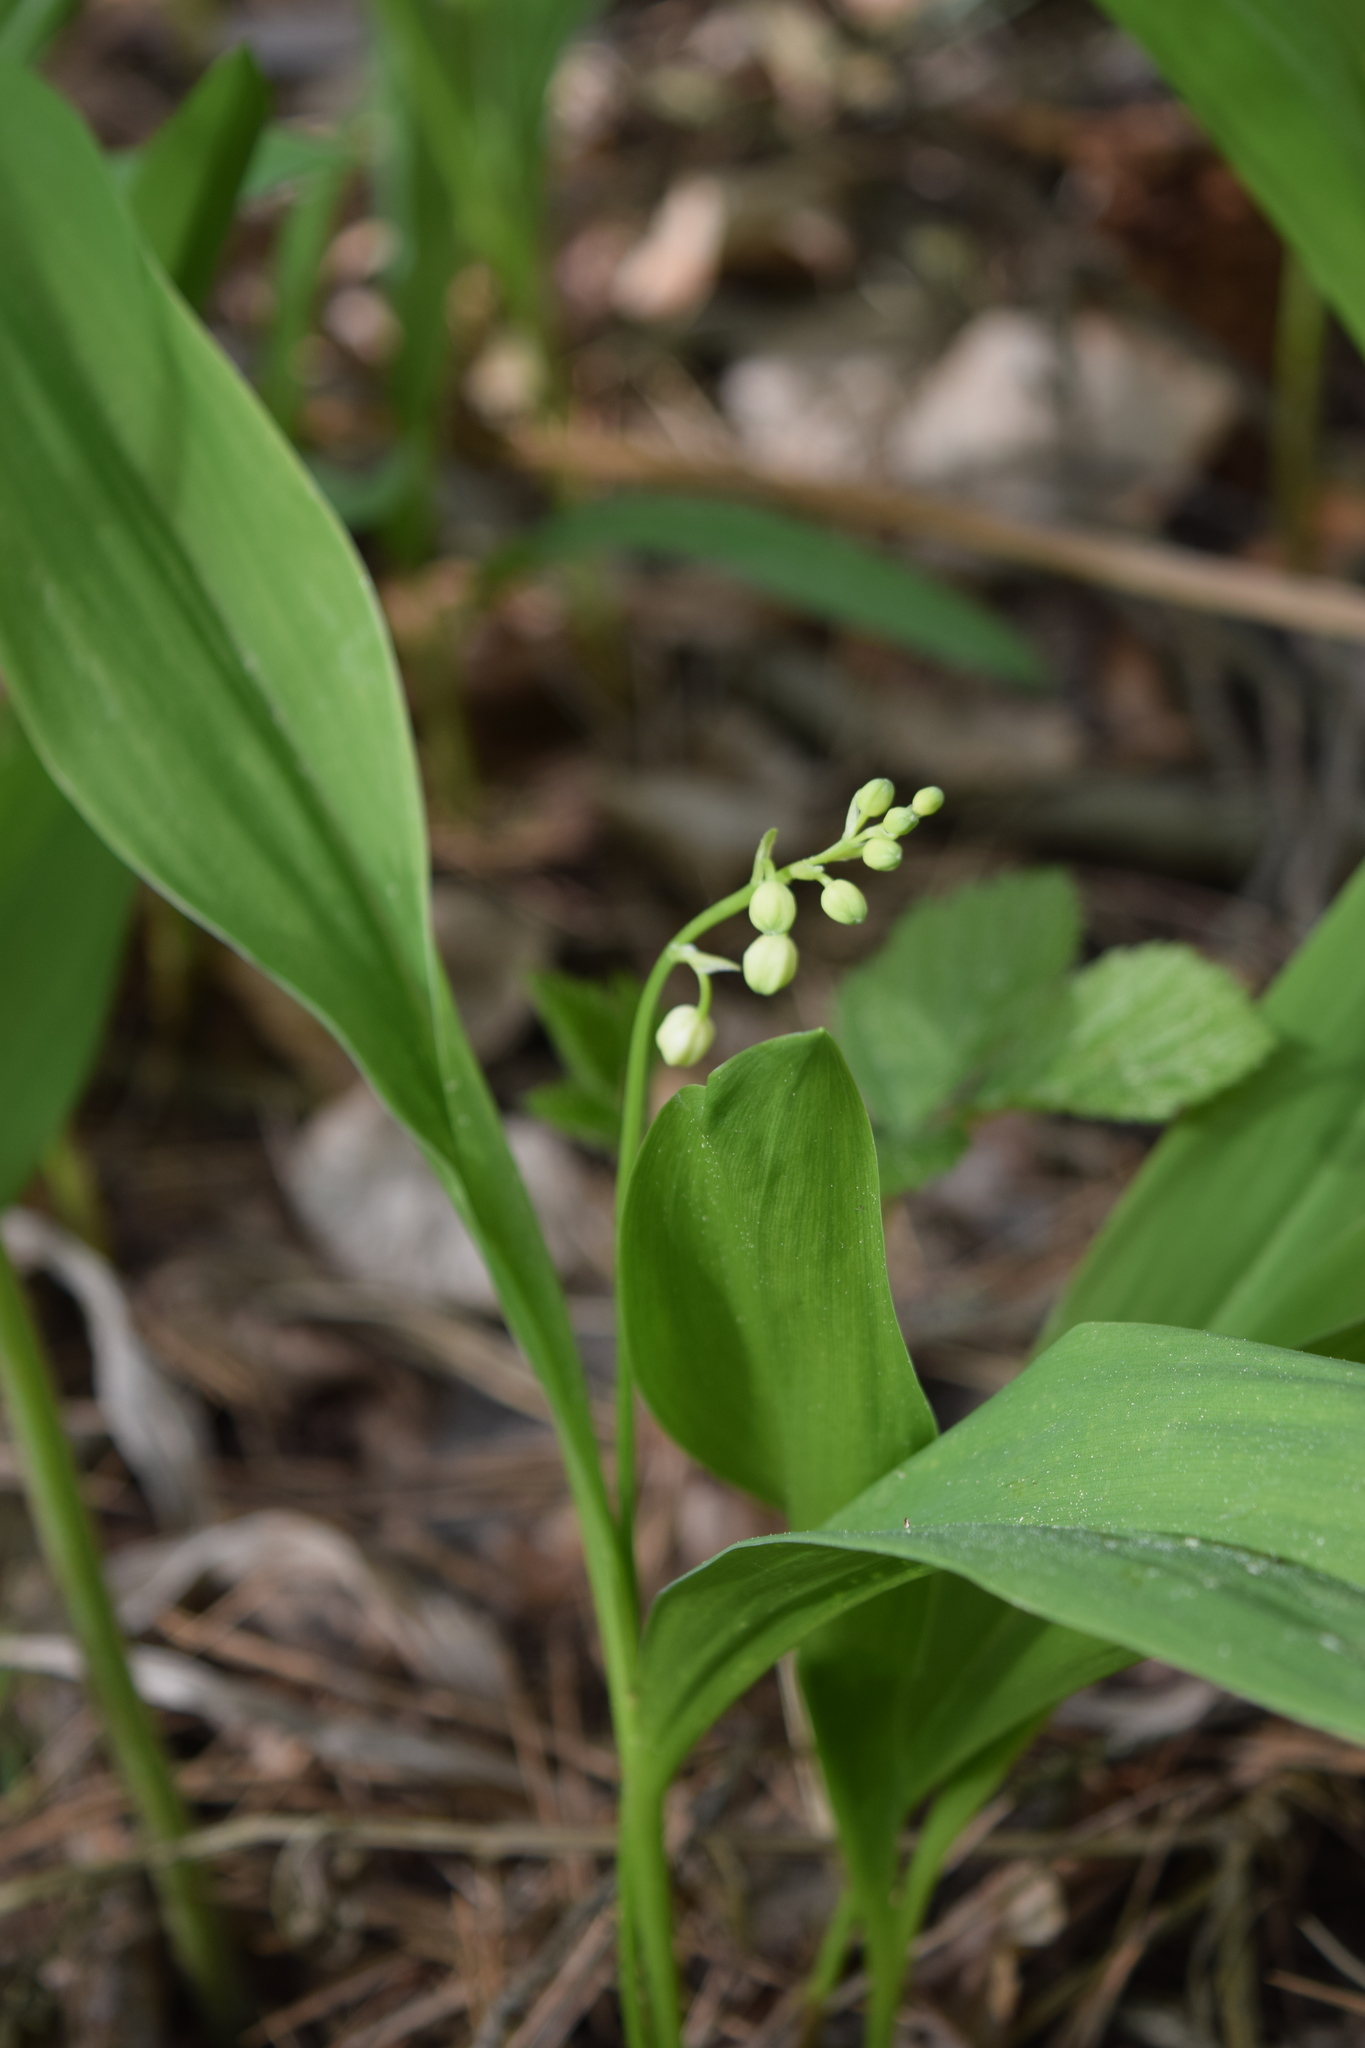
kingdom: Plantae
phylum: Tracheophyta
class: Liliopsida
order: Asparagales
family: Asparagaceae
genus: Convallaria
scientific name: Convallaria majalis
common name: Lily-of-the-valley
